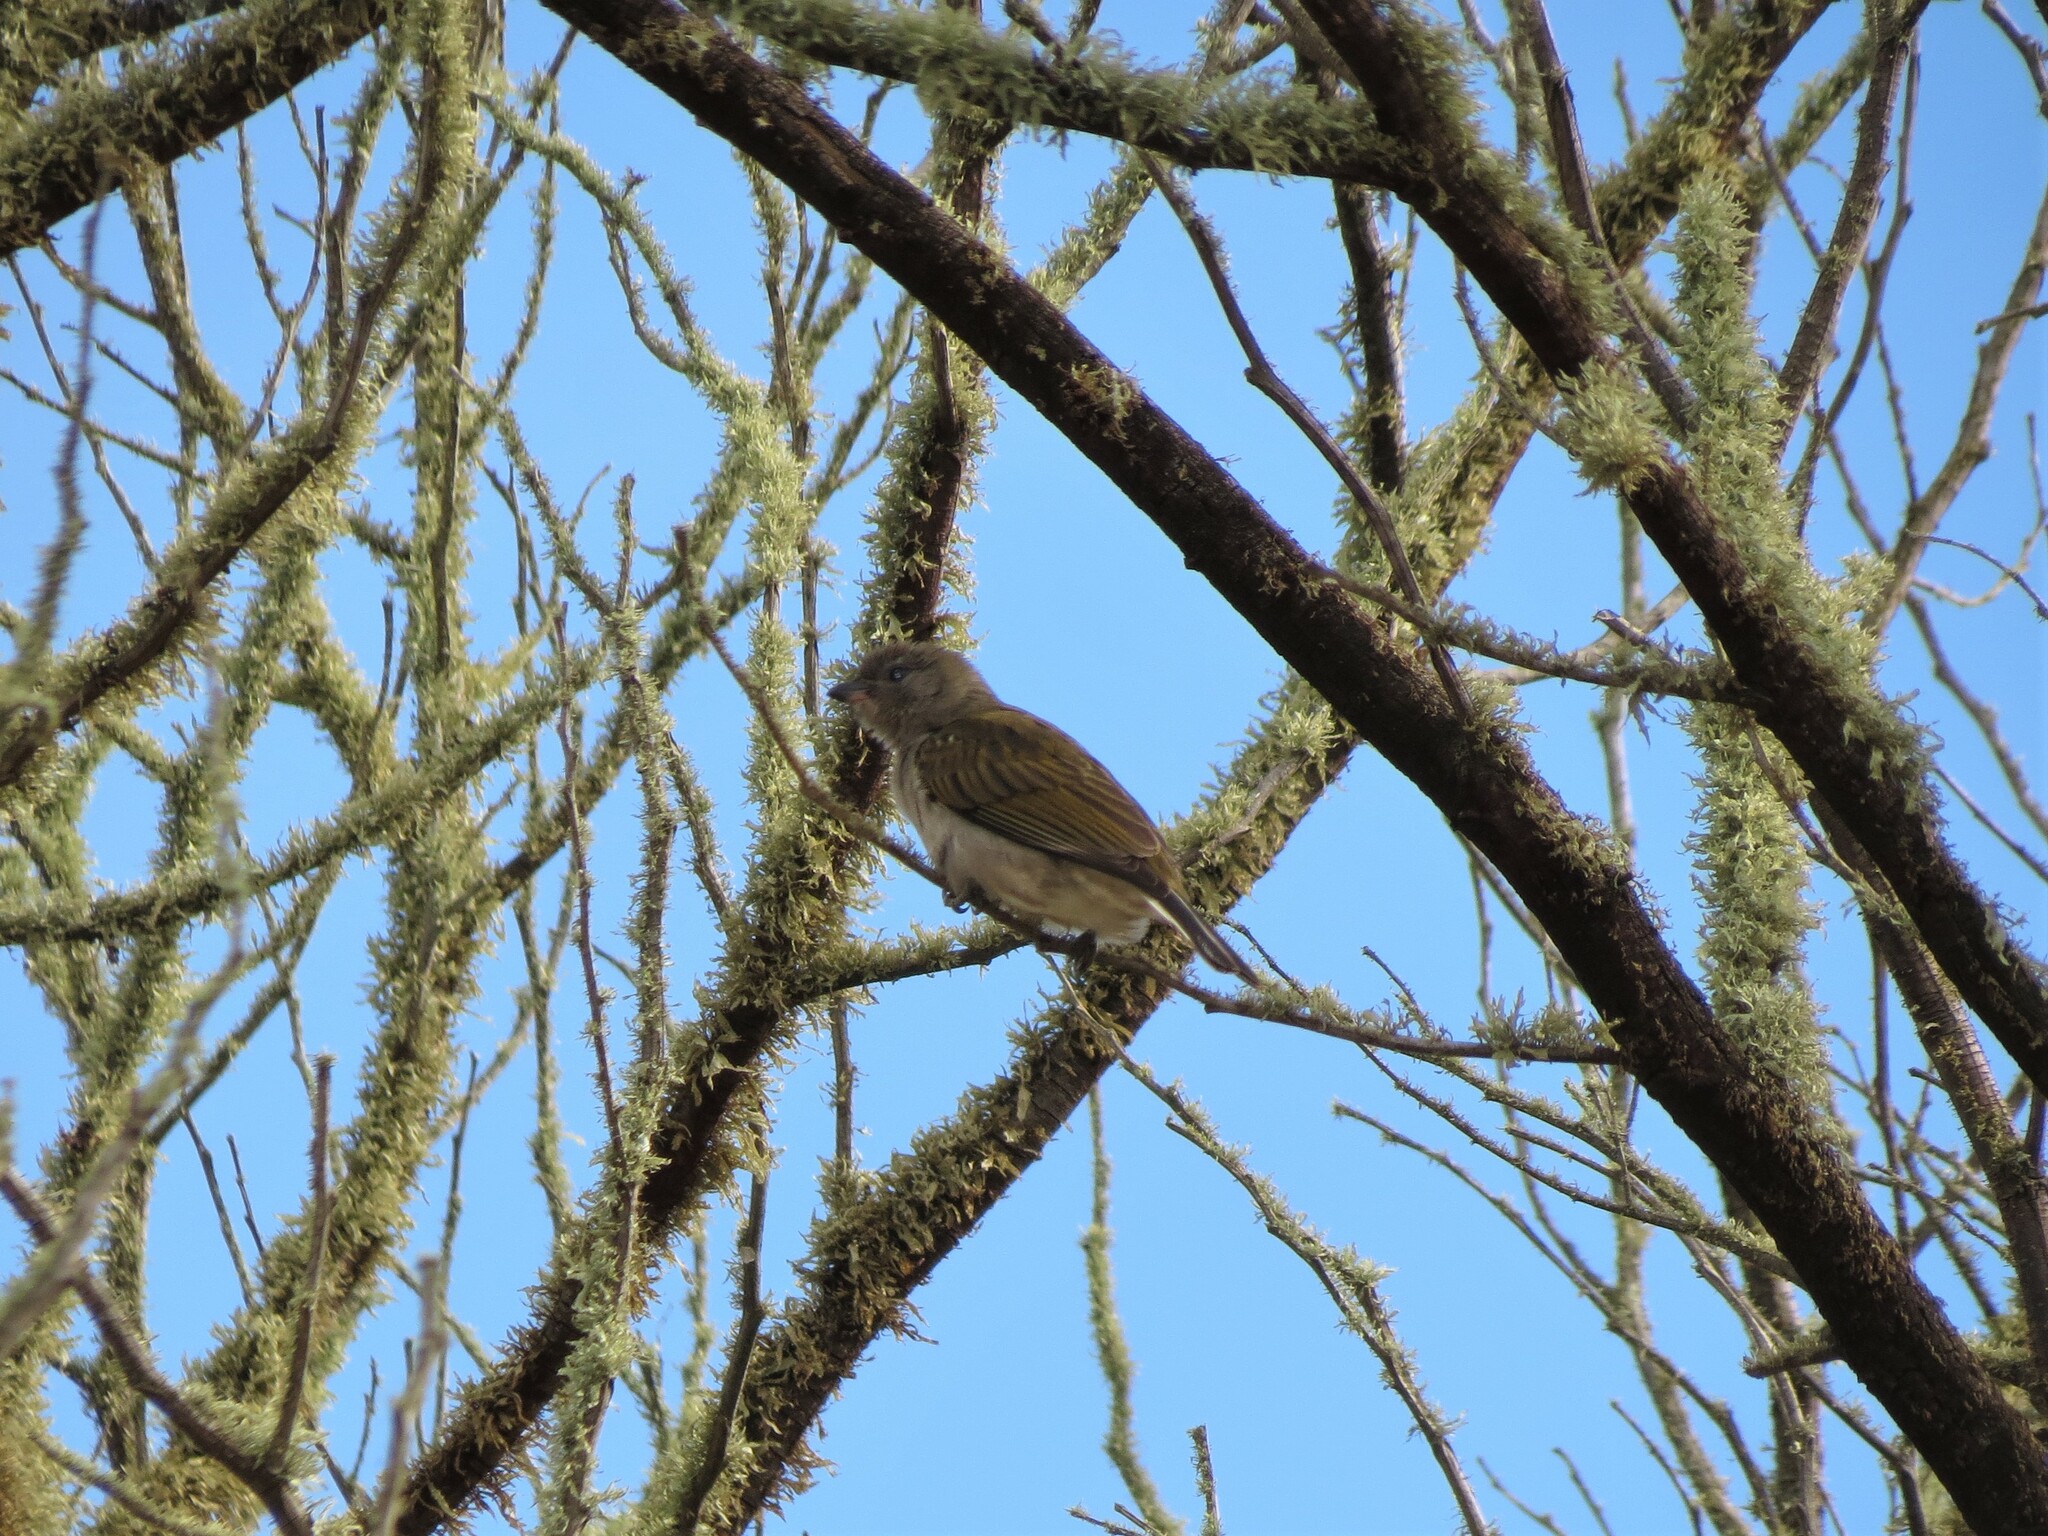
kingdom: Animalia
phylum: Chordata
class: Aves
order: Piciformes
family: Indicatoridae
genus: Indicator
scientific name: Indicator minor
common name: Lesser honeyguide
